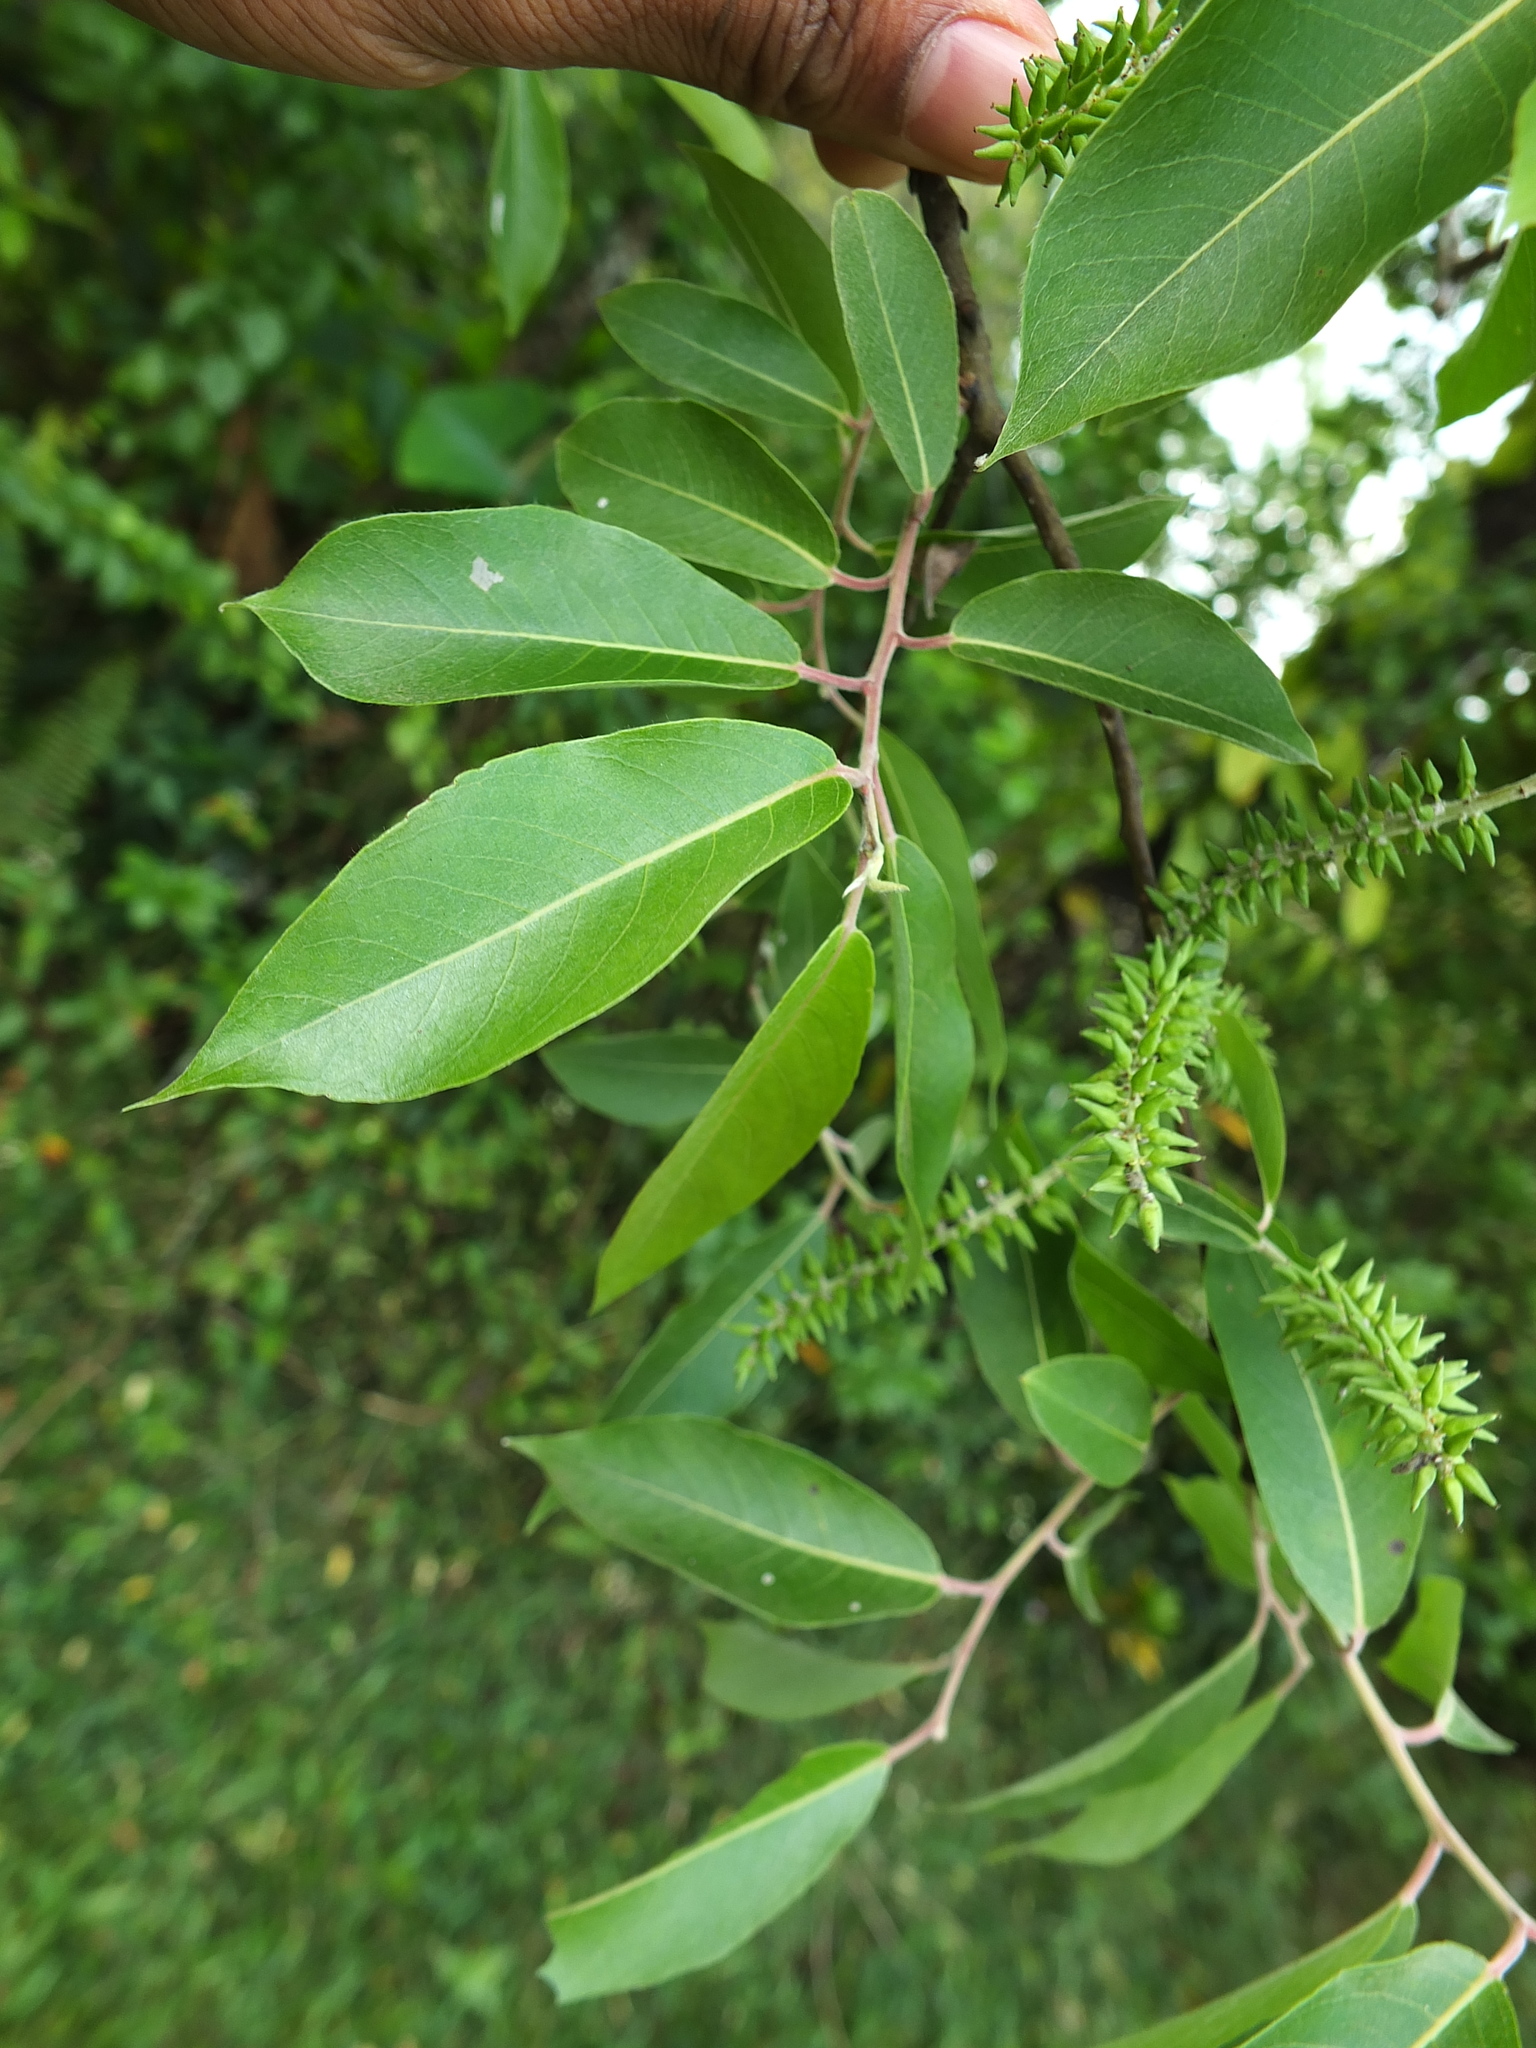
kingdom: Plantae
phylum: Tracheophyta
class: Magnoliopsida
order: Malpighiales
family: Salicaceae
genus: Salix
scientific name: Salix tetrasperma
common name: Indian willow
